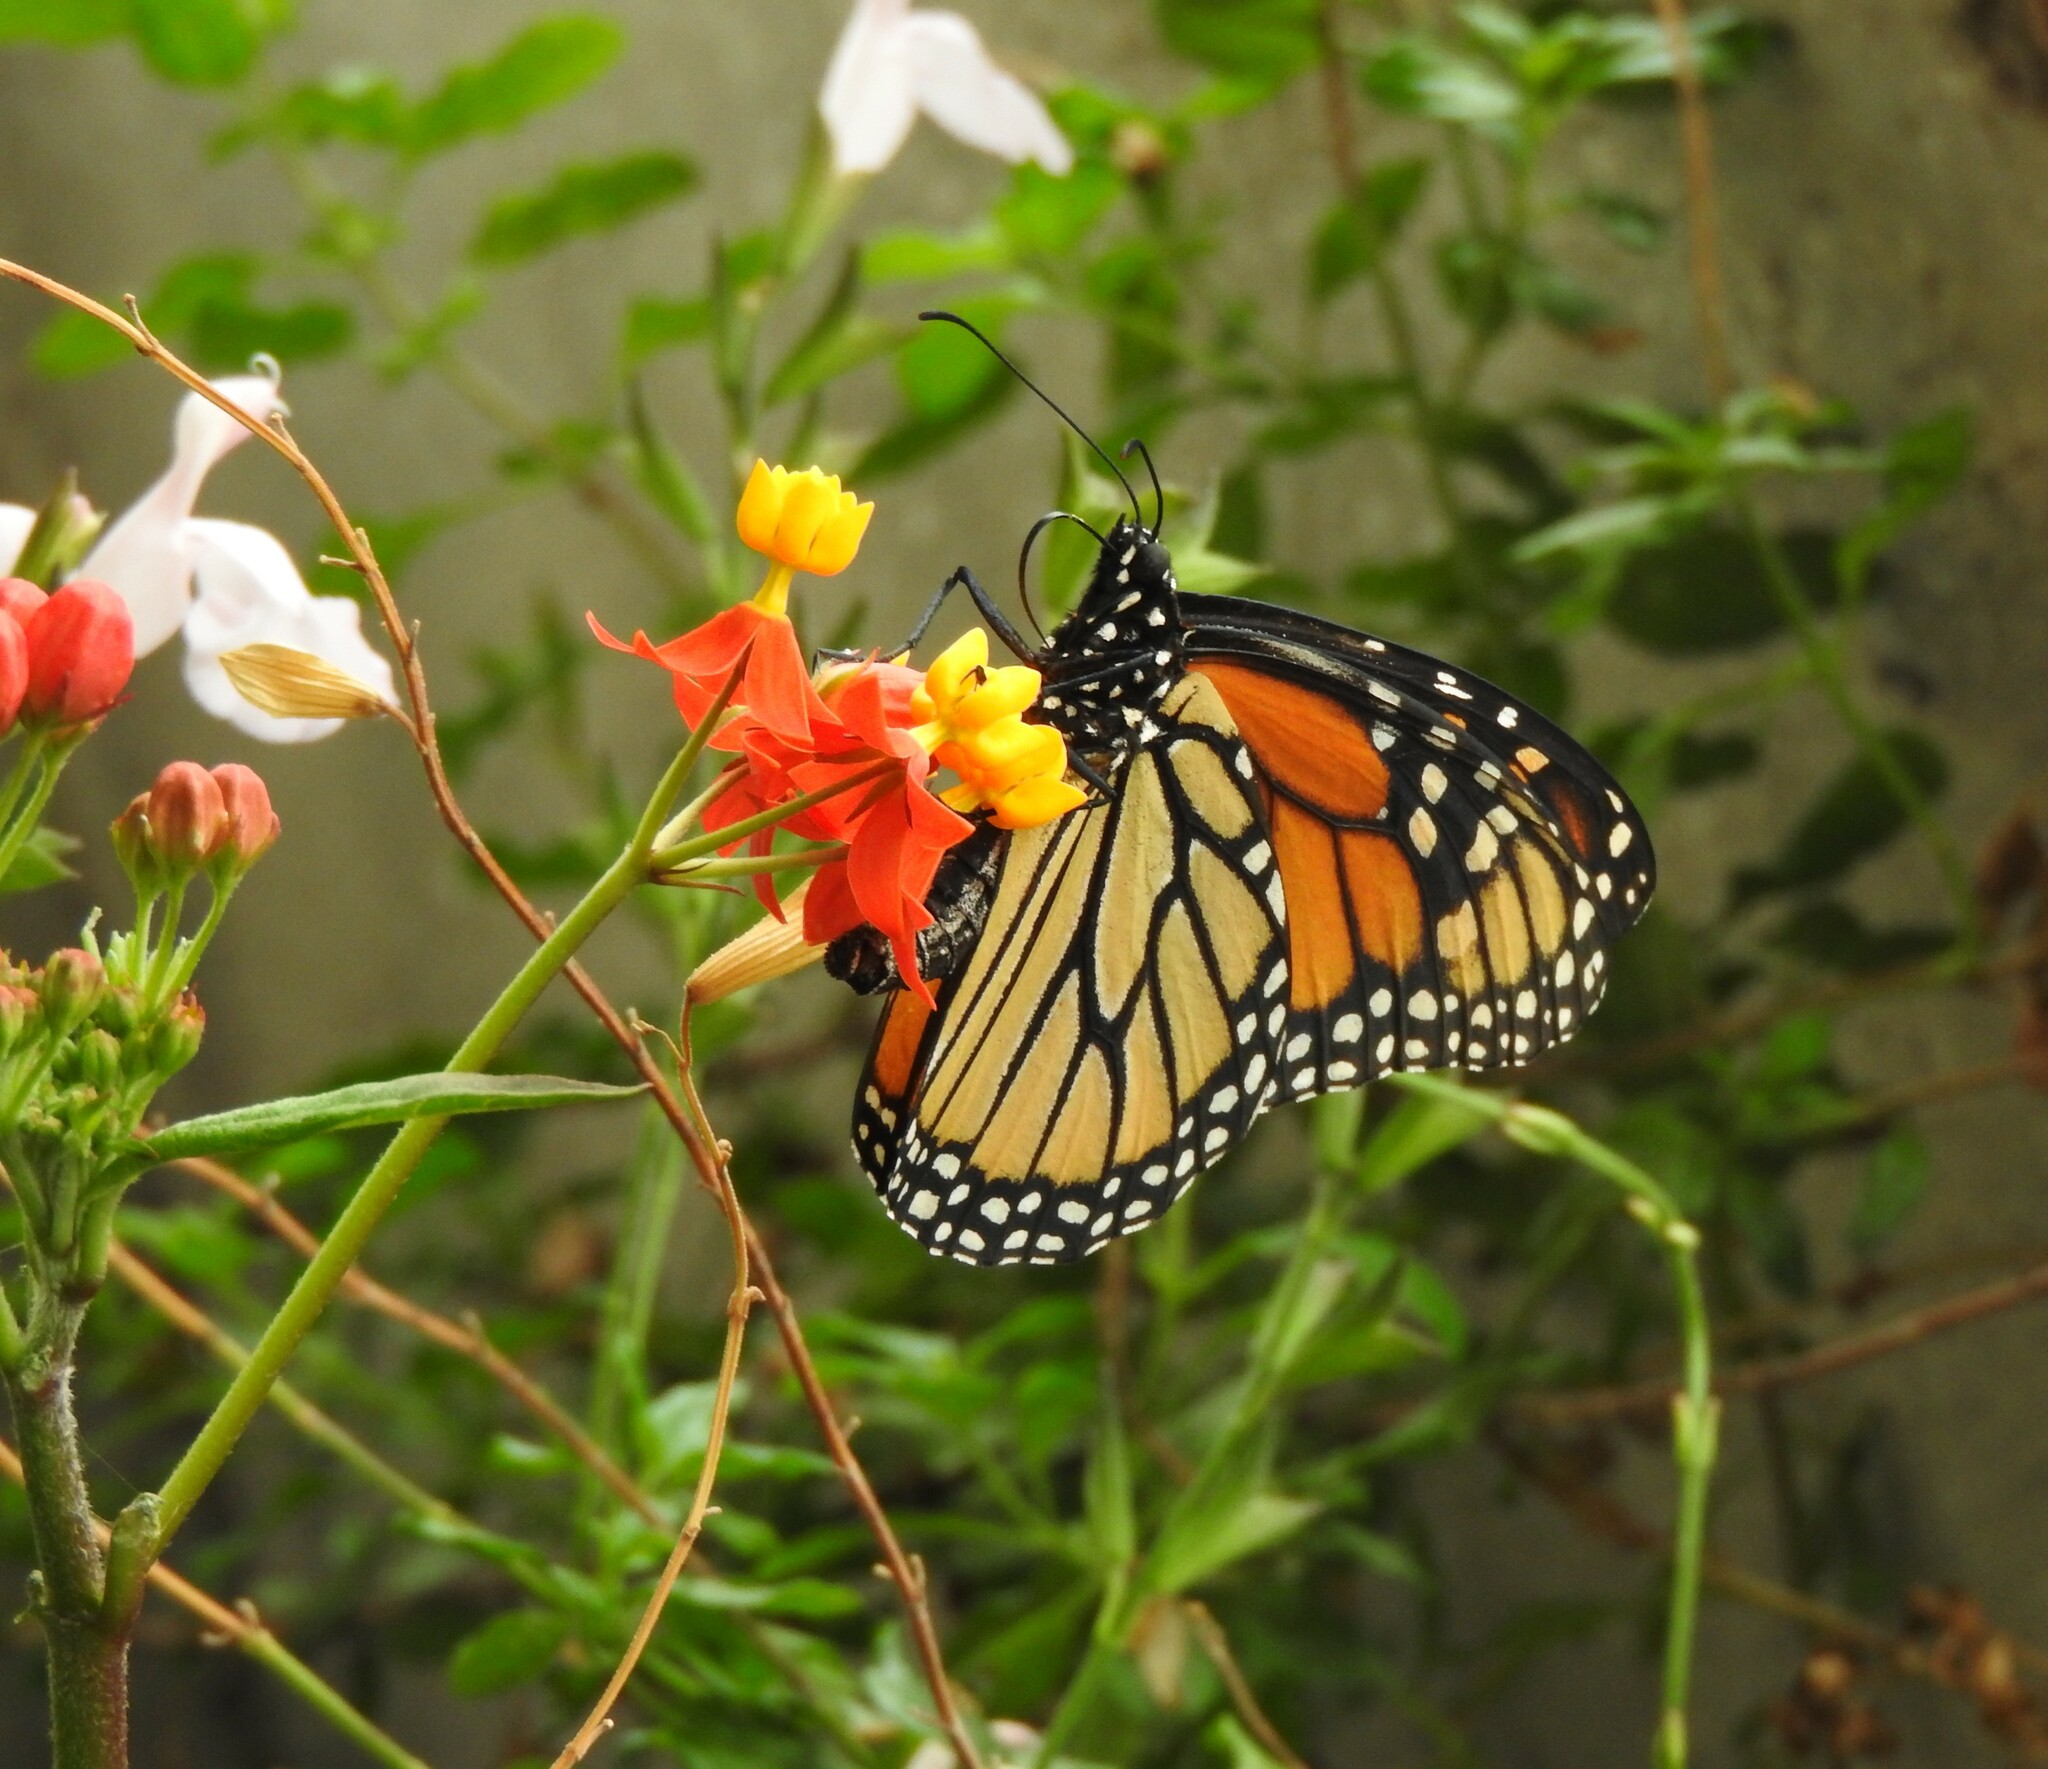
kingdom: Animalia
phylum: Arthropoda
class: Insecta
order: Lepidoptera
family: Nymphalidae
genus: Danaus
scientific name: Danaus plexippus
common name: Monarch
